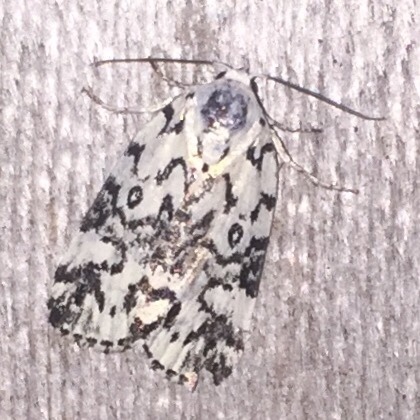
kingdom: Animalia
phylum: Arthropoda
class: Insecta
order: Lepidoptera
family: Noctuidae
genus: Polygrammate
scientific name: Polygrammate hebraeicum
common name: Hebrew moth
